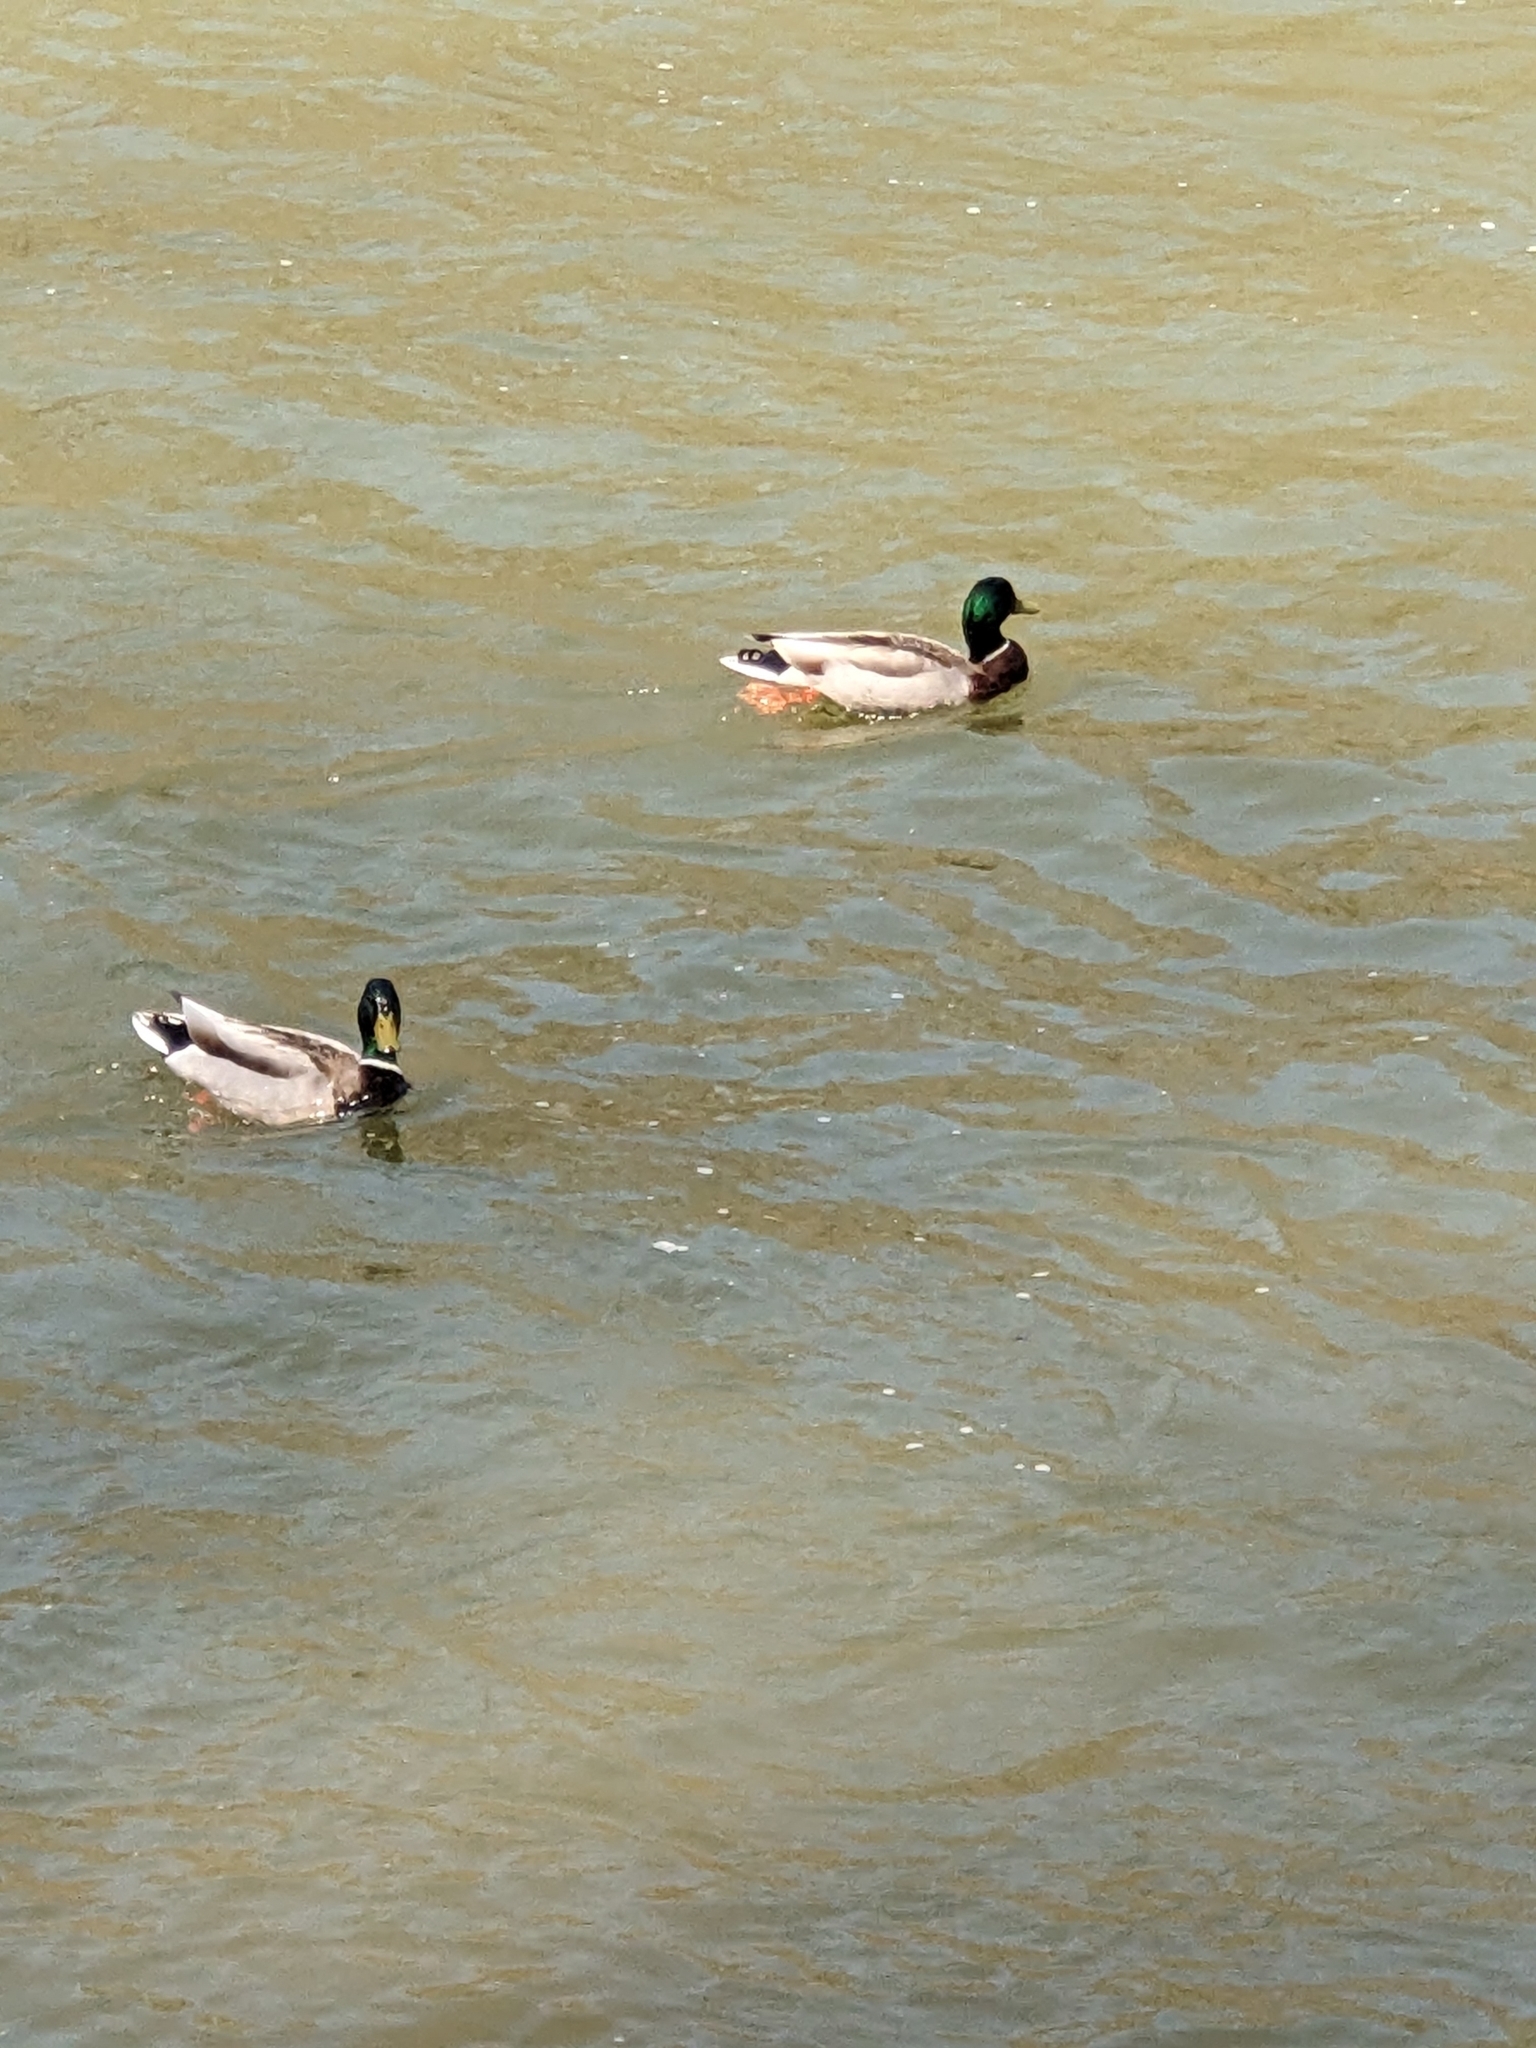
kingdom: Animalia
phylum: Chordata
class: Aves
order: Anseriformes
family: Anatidae
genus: Anas
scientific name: Anas platyrhynchos
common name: Mallard
